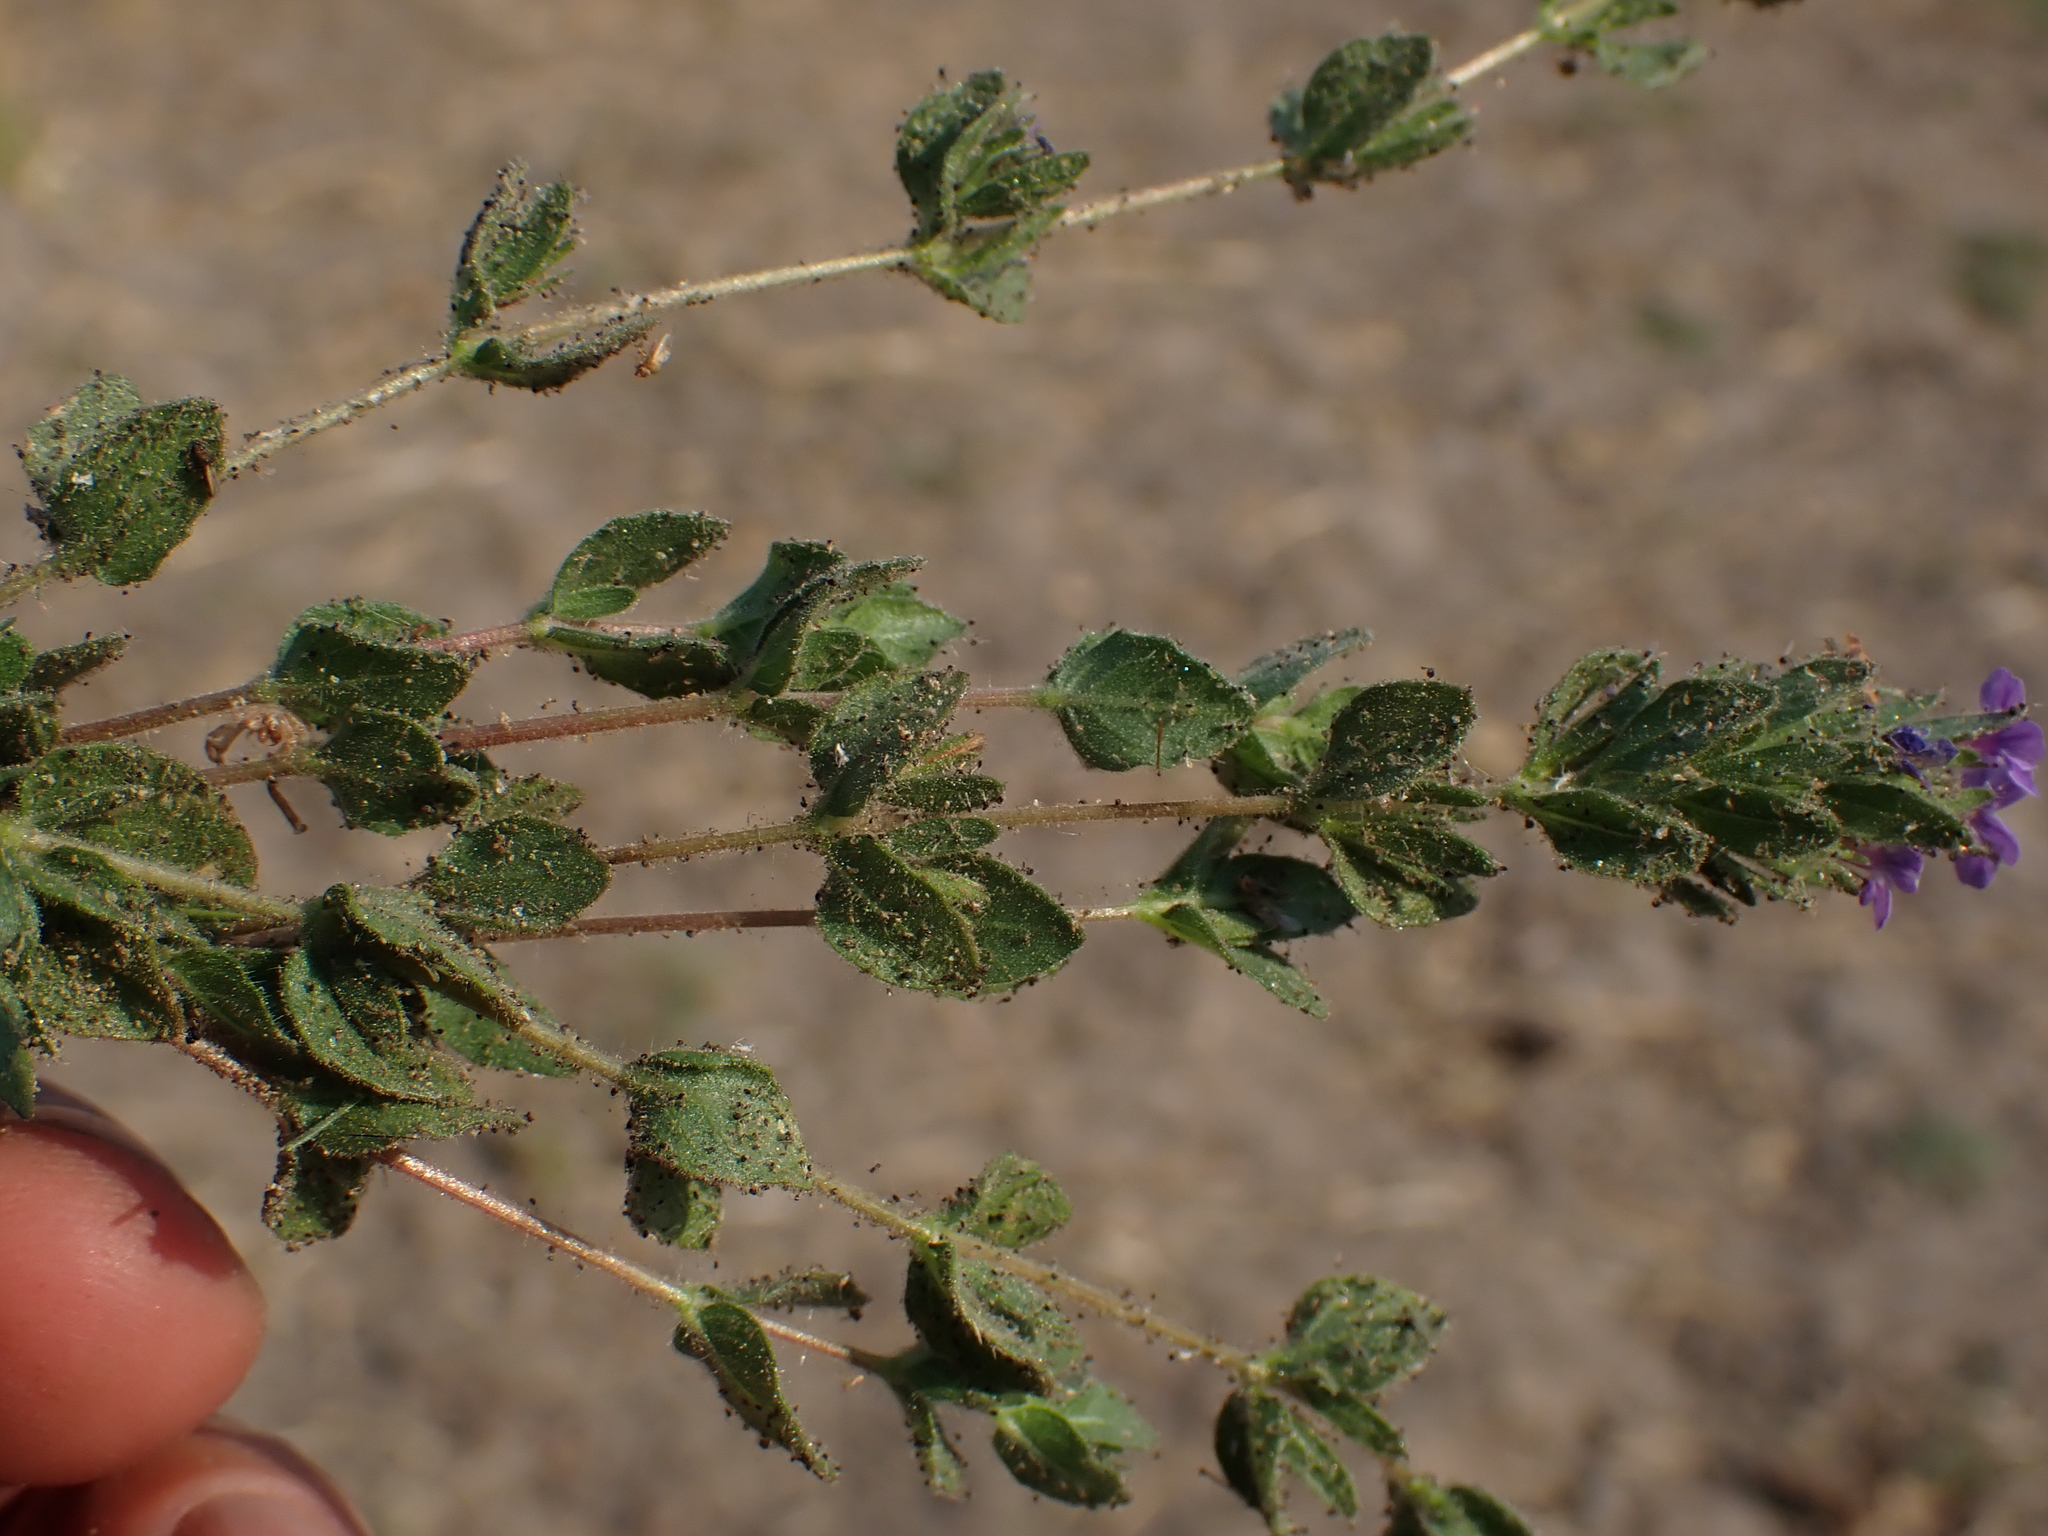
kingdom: Plantae
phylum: Tracheophyta
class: Magnoliopsida
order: Lamiales
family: Acanthaceae
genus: Hygrophila
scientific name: Hygrophila abyssinica
